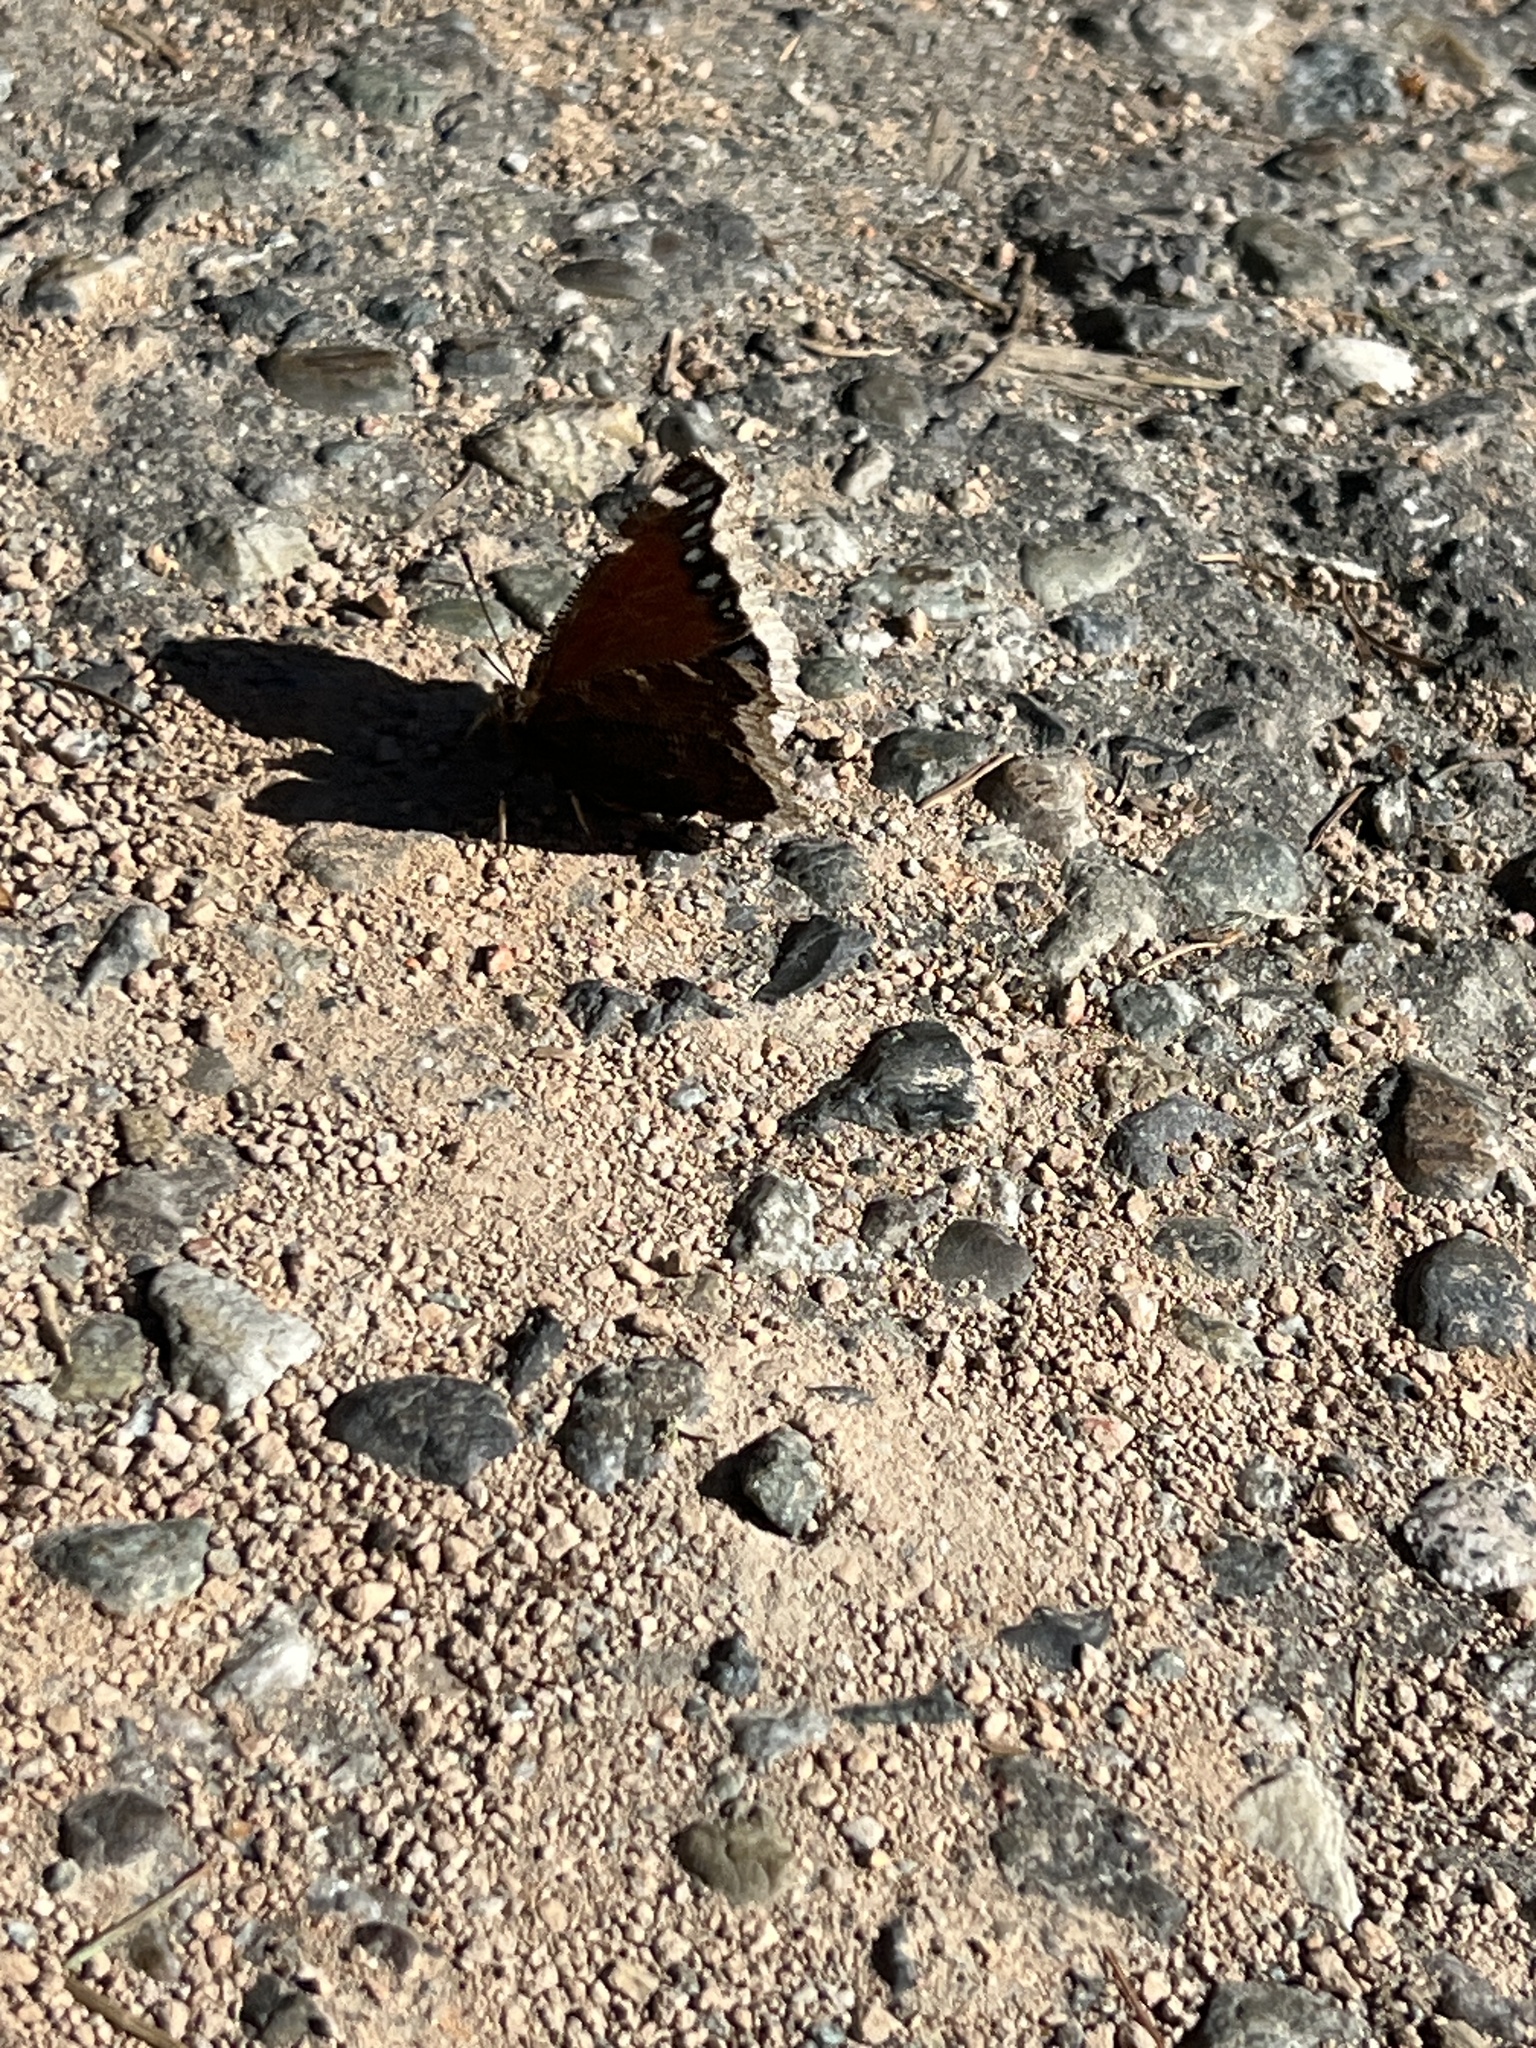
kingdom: Animalia
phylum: Arthropoda
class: Insecta
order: Lepidoptera
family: Nymphalidae
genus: Nymphalis
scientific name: Nymphalis antiopa
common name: Camberwell beauty
